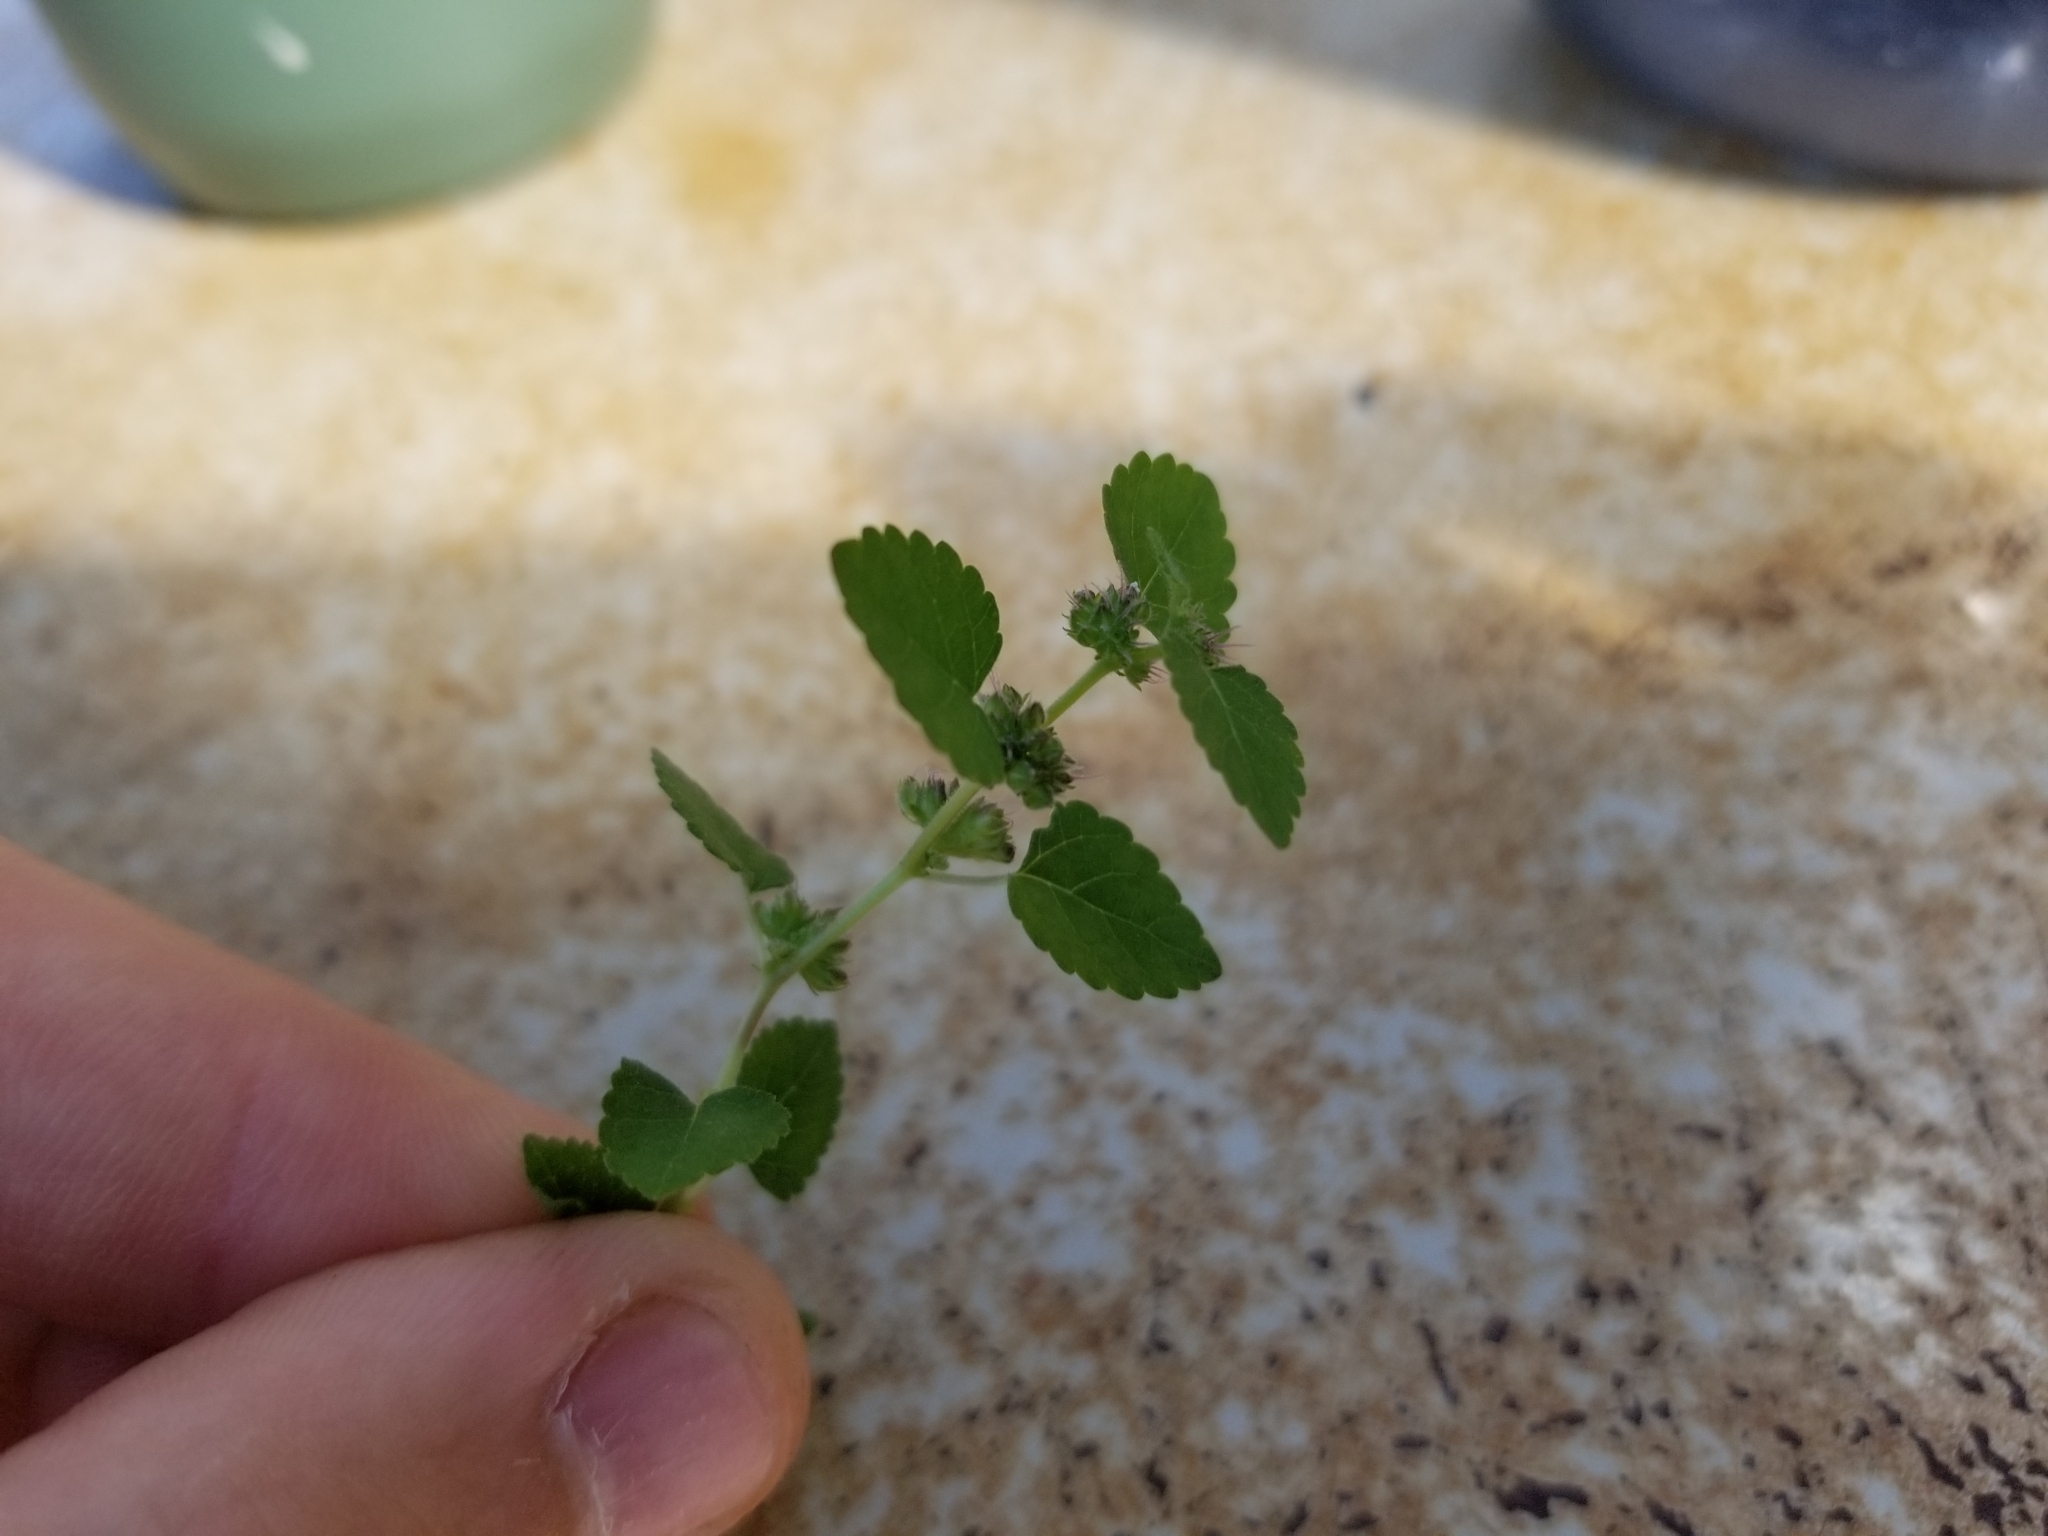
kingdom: Plantae
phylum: Tracheophyta
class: Magnoliopsida
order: Rosales
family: Moraceae
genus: Fatoua
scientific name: Fatoua villosa
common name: Hairy crabweed
